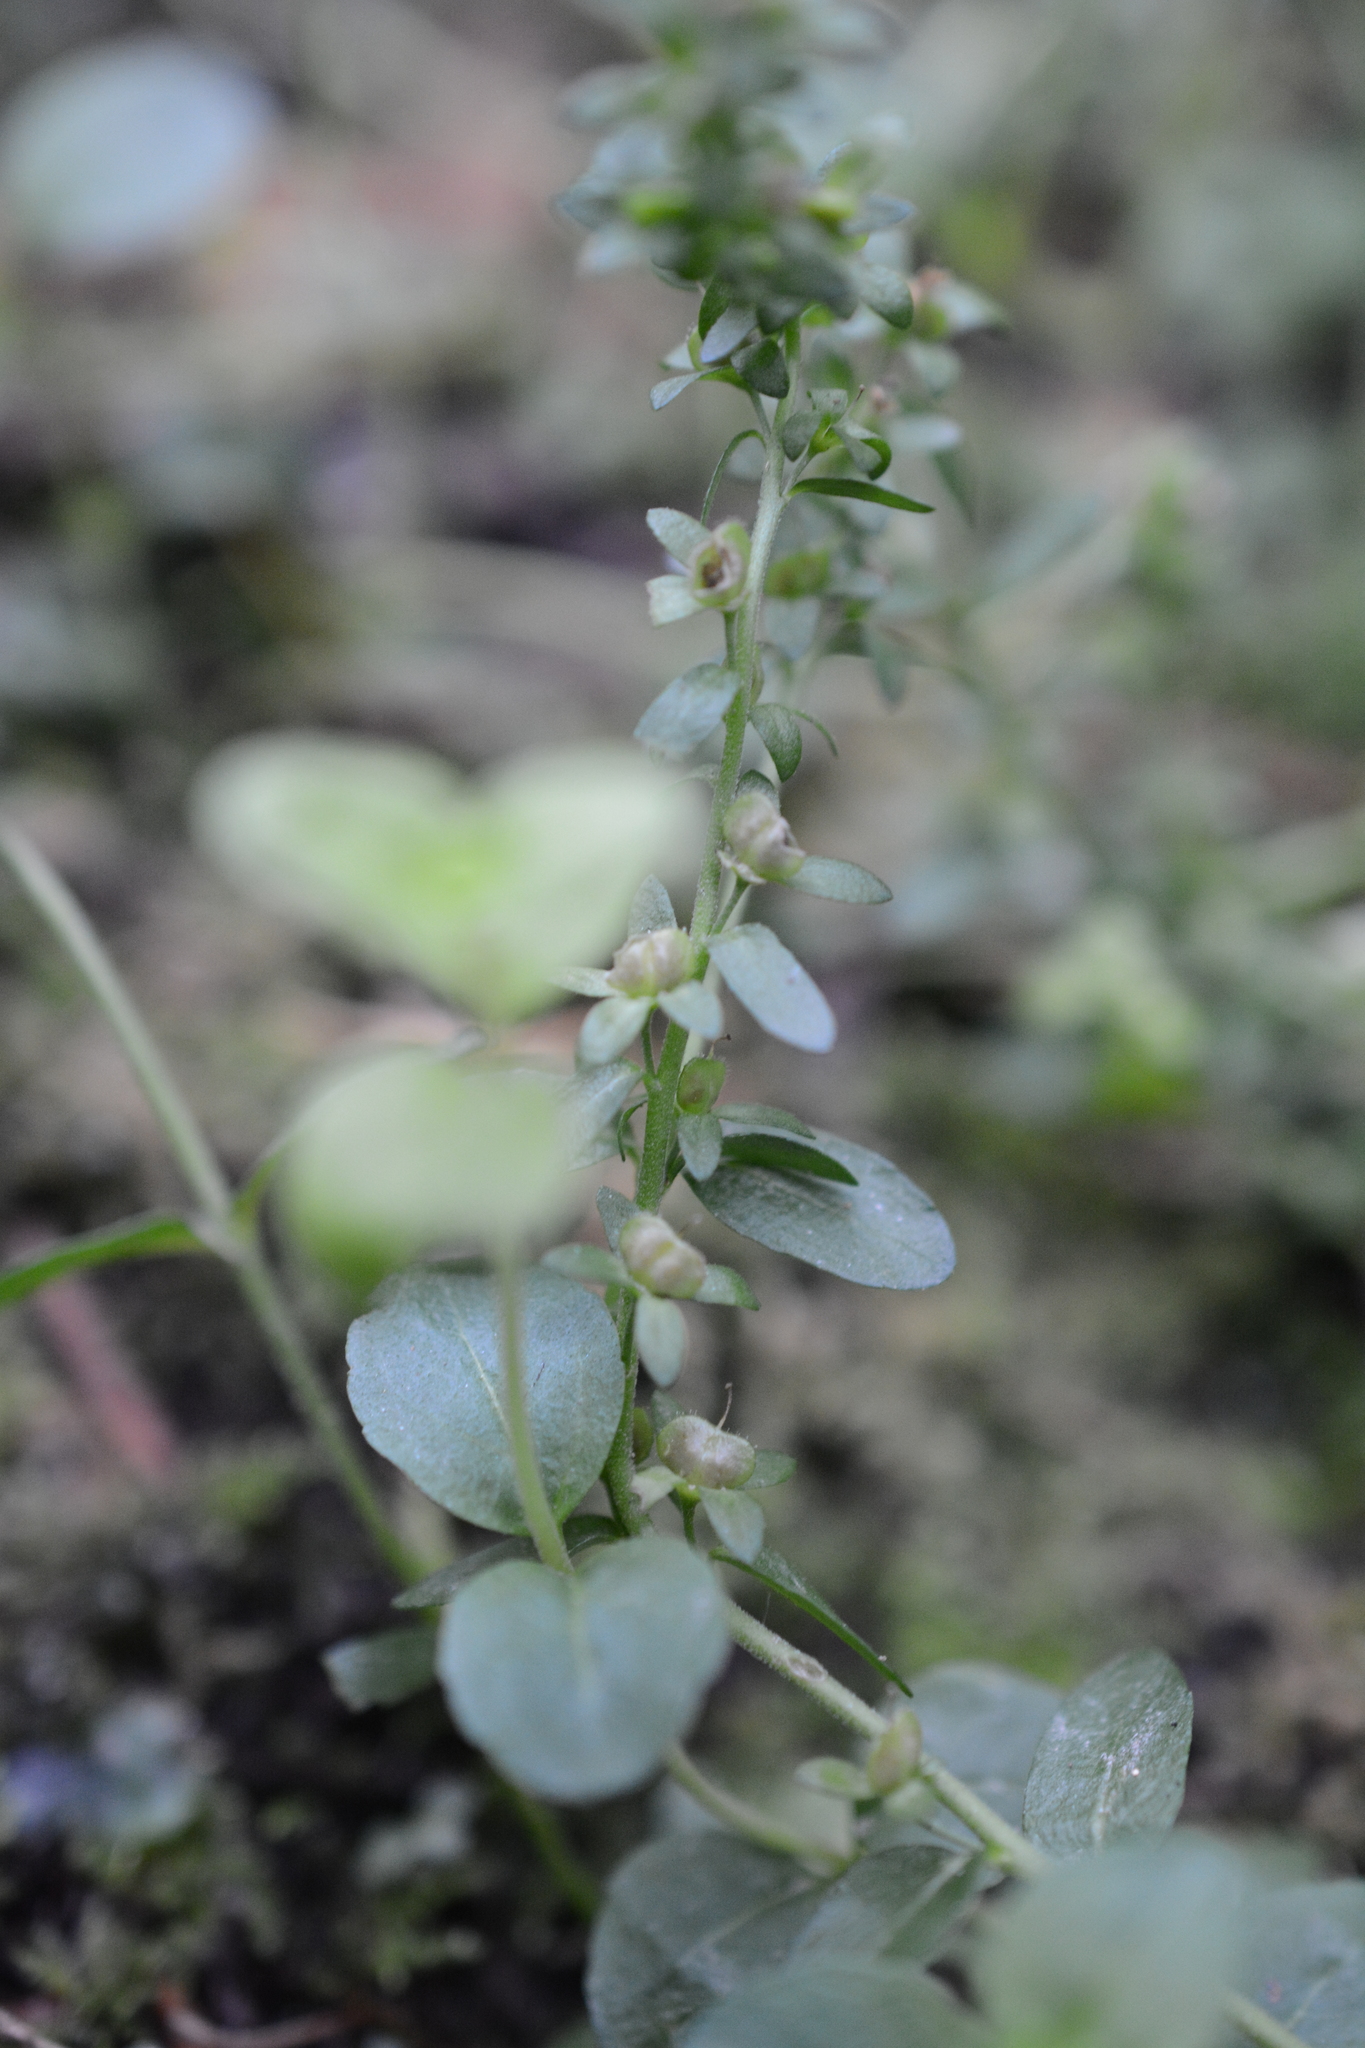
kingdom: Plantae
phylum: Tracheophyta
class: Magnoliopsida
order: Lamiales
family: Plantaginaceae
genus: Veronica
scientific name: Veronica serpyllifolia
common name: Thyme-leaved speedwell
